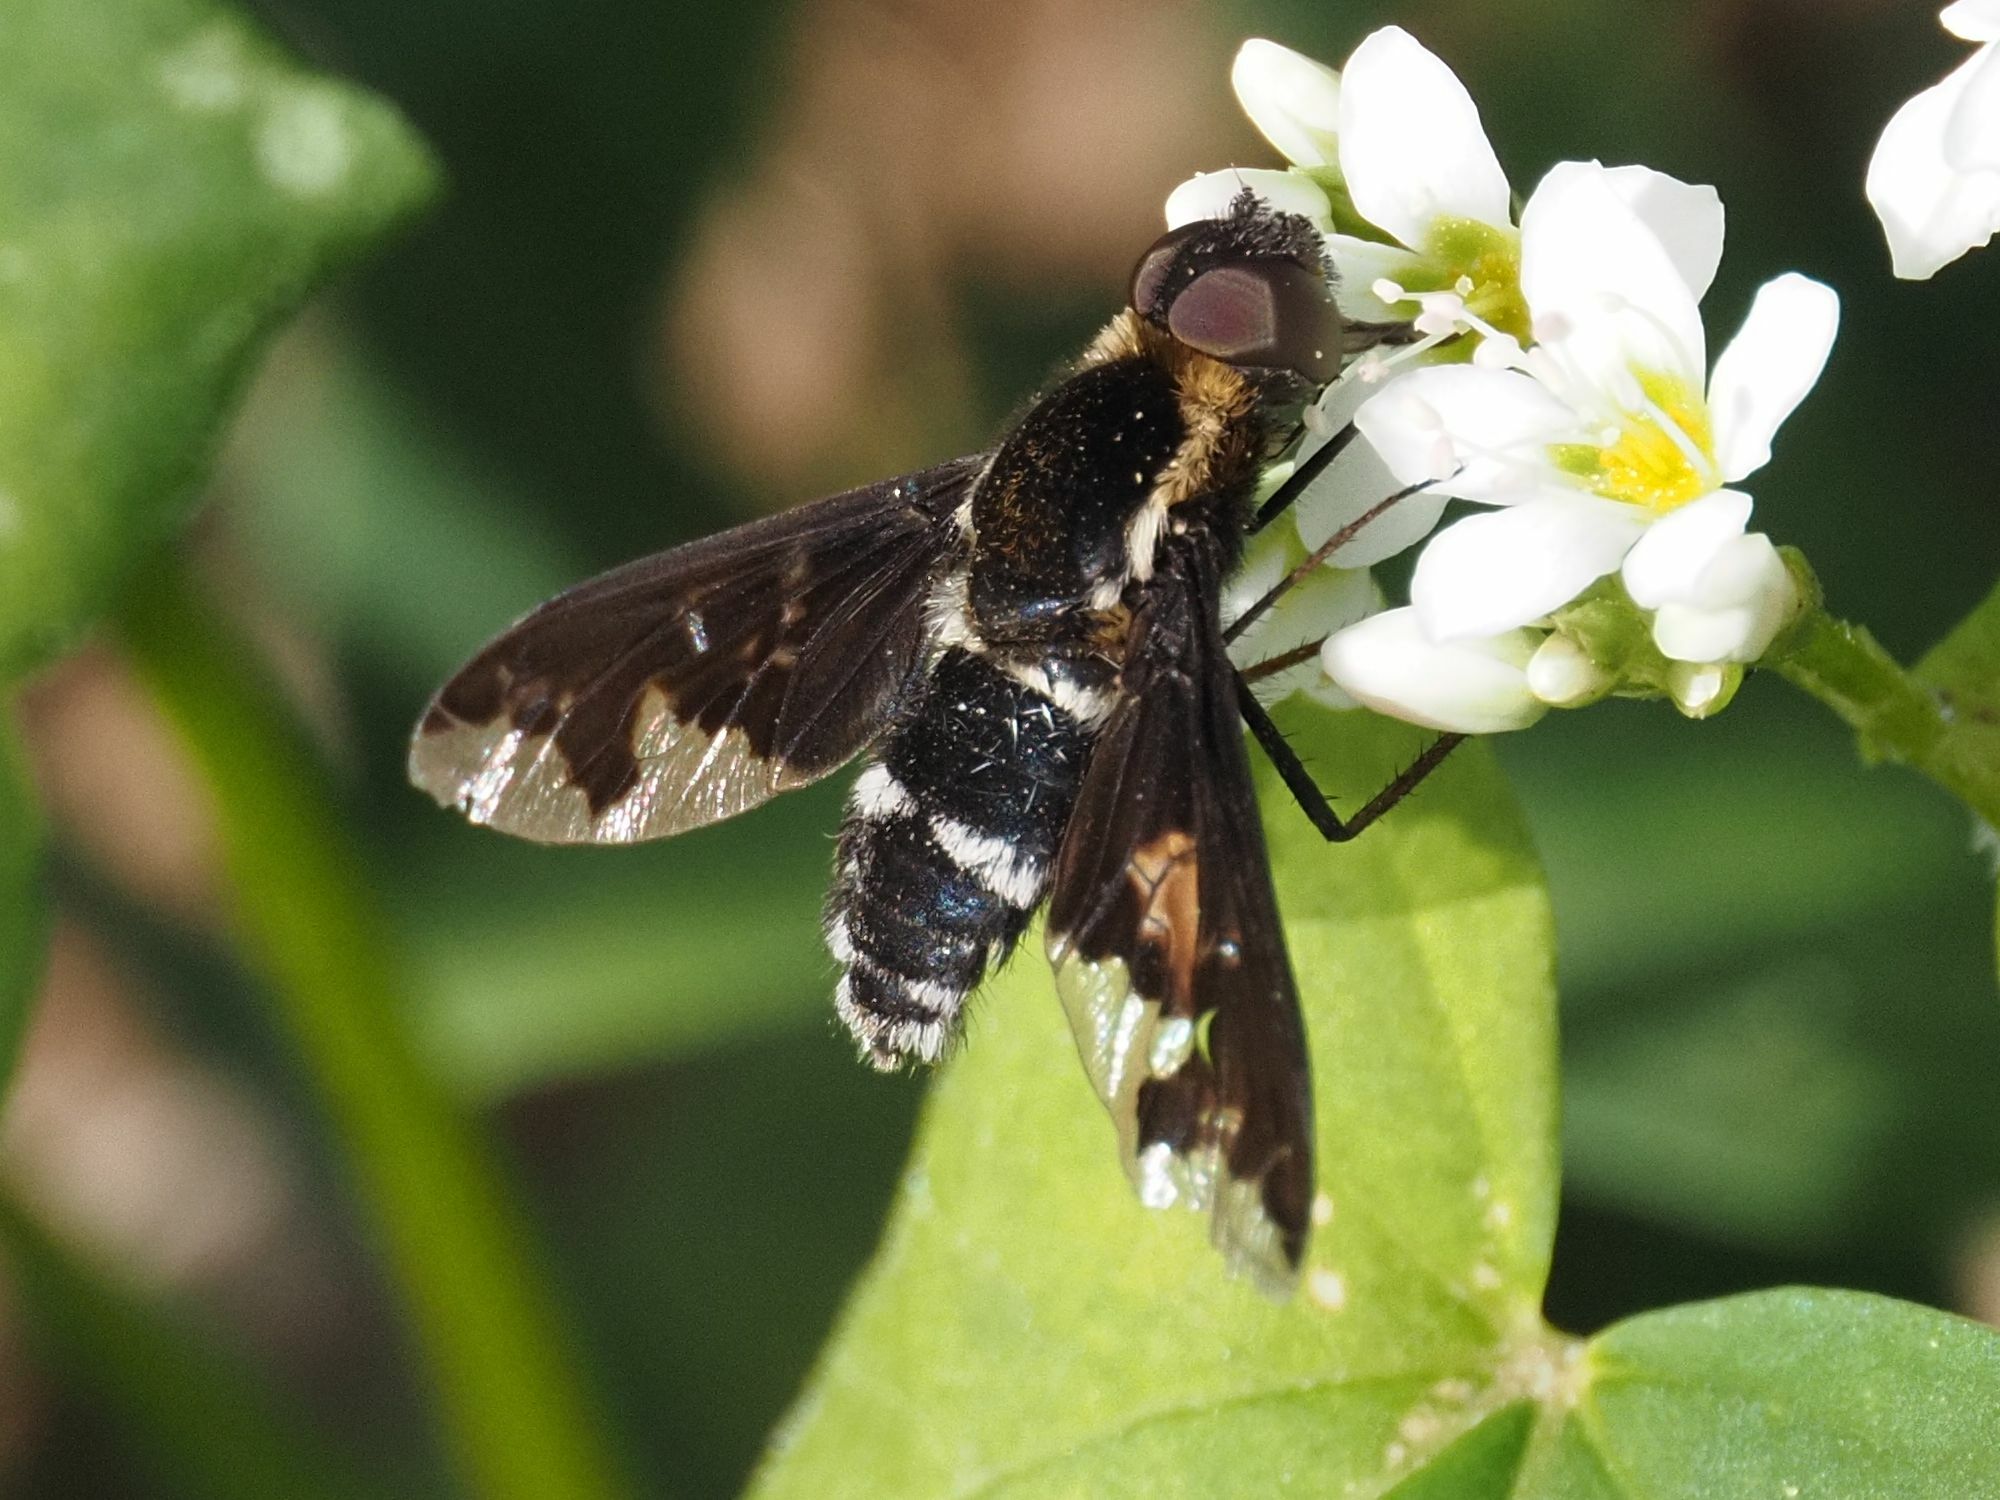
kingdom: Animalia
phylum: Arthropoda
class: Insecta
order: Diptera
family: Bombyliidae
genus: Hemipenthes
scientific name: Hemipenthes maura
